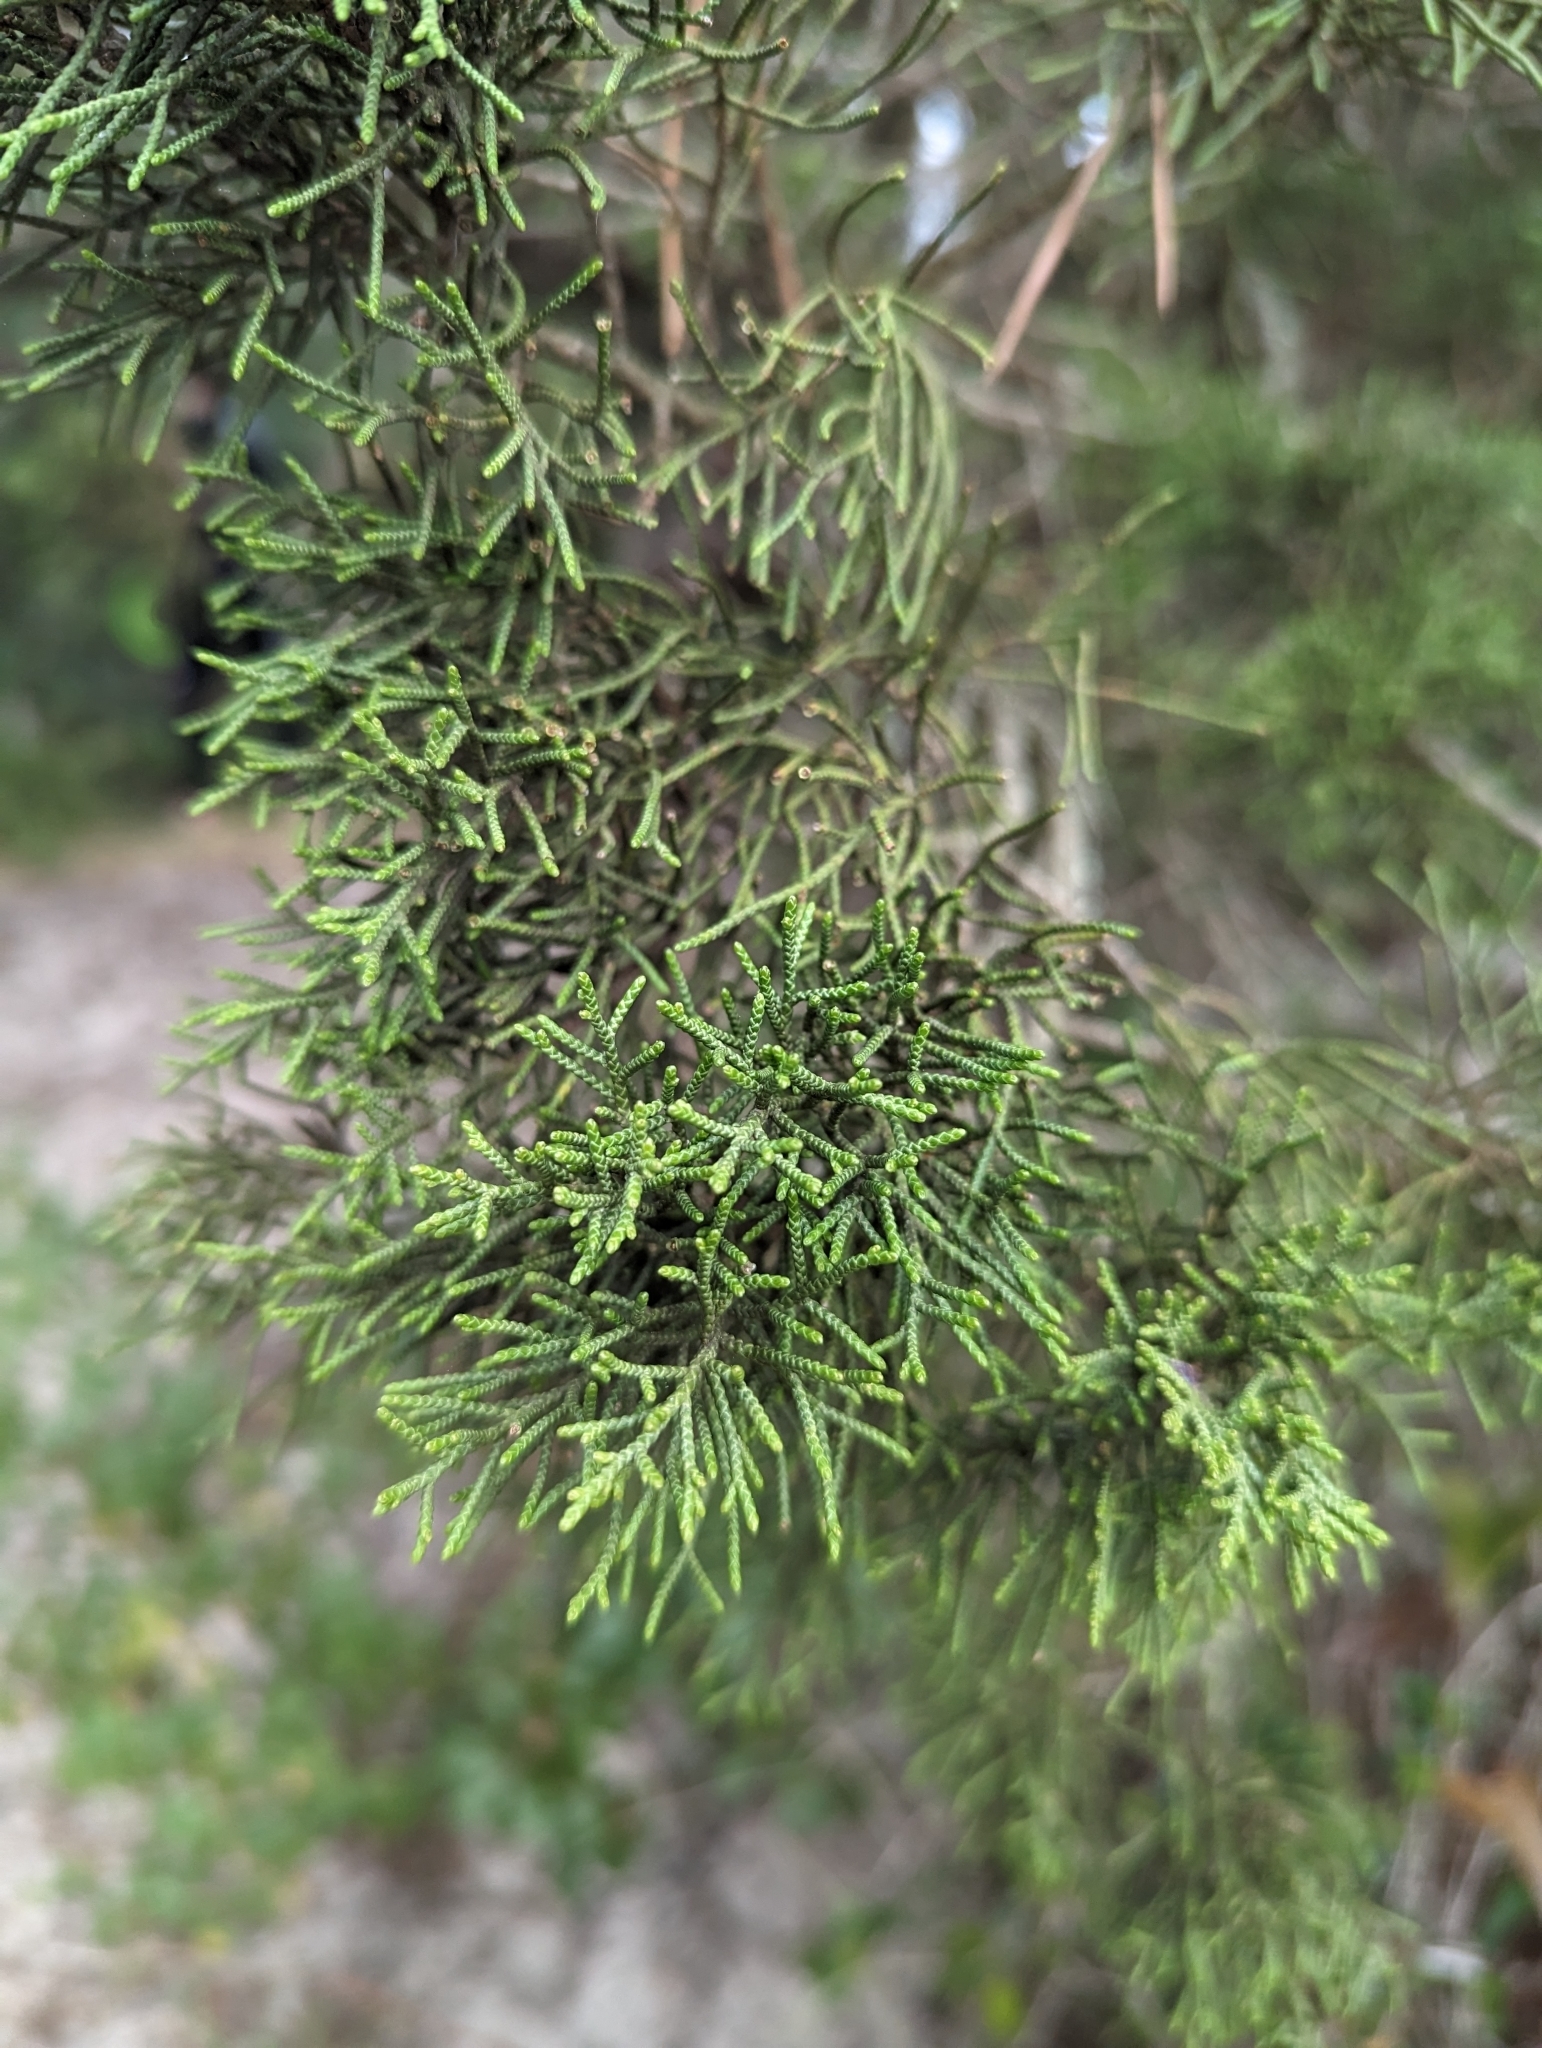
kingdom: Plantae
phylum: Tracheophyta
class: Pinopsida
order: Pinales
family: Cupressaceae
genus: Juniperus
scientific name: Juniperus phoenicea
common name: Phoenician juniper
